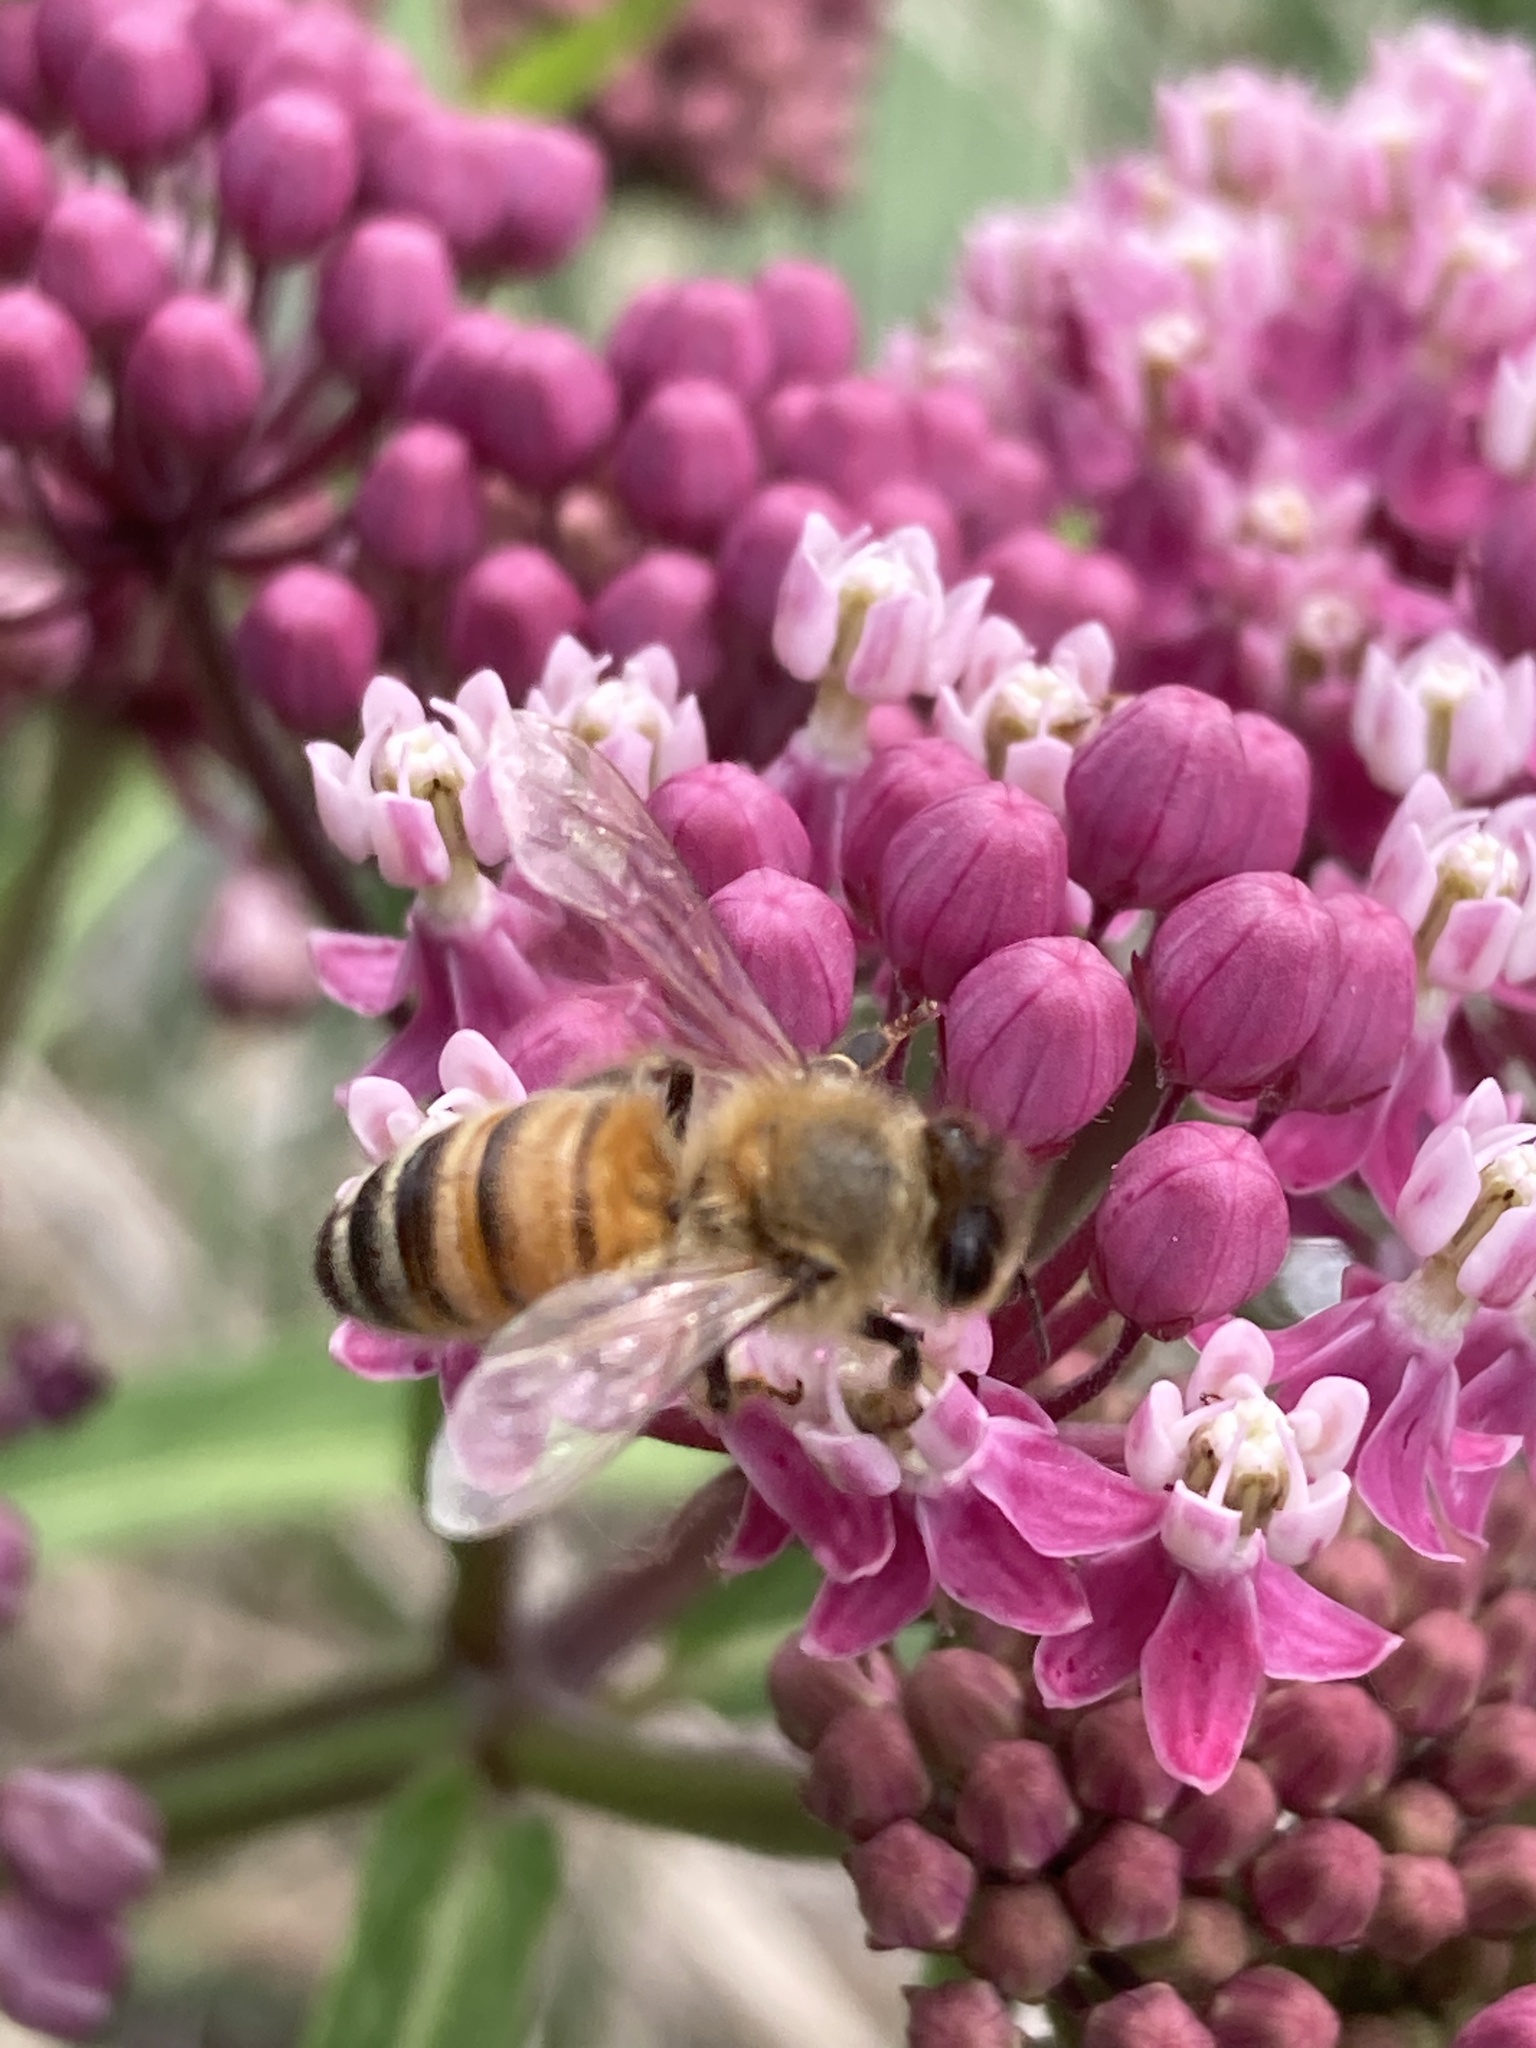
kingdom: Animalia
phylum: Arthropoda
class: Insecta
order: Hymenoptera
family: Apidae
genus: Apis
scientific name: Apis mellifera
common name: Honey bee
